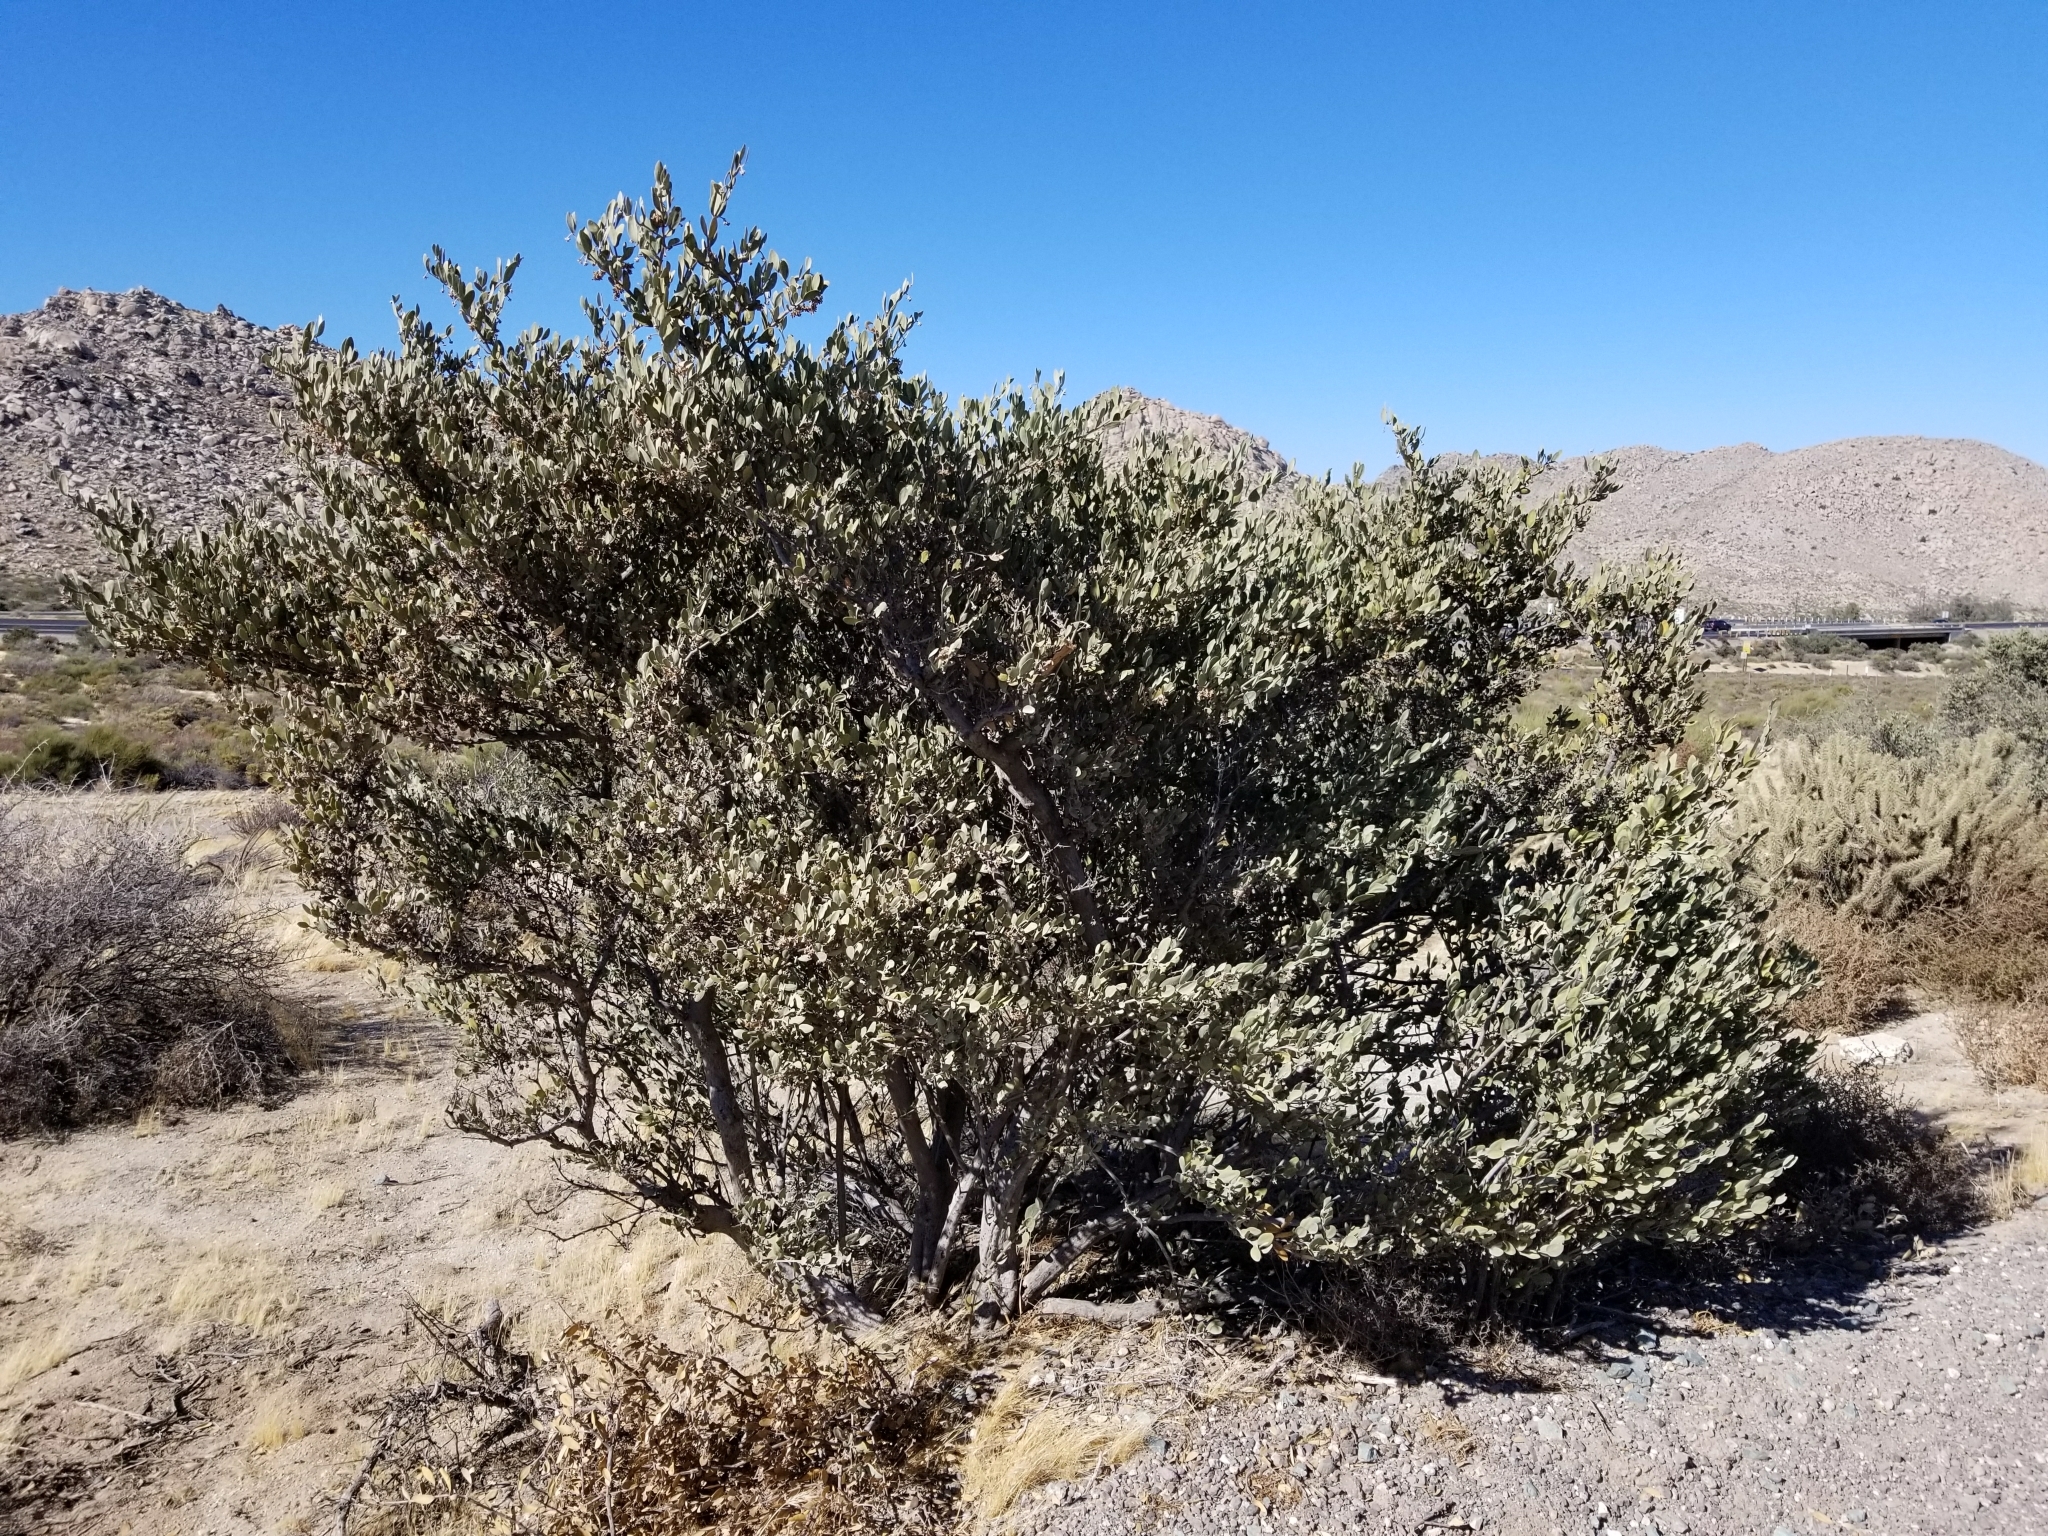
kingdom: Plantae
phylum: Tracheophyta
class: Magnoliopsida
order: Caryophyllales
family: Simmondsiaceae
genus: Simmondsia
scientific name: Simmondsia chinensis
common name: Jojoba
